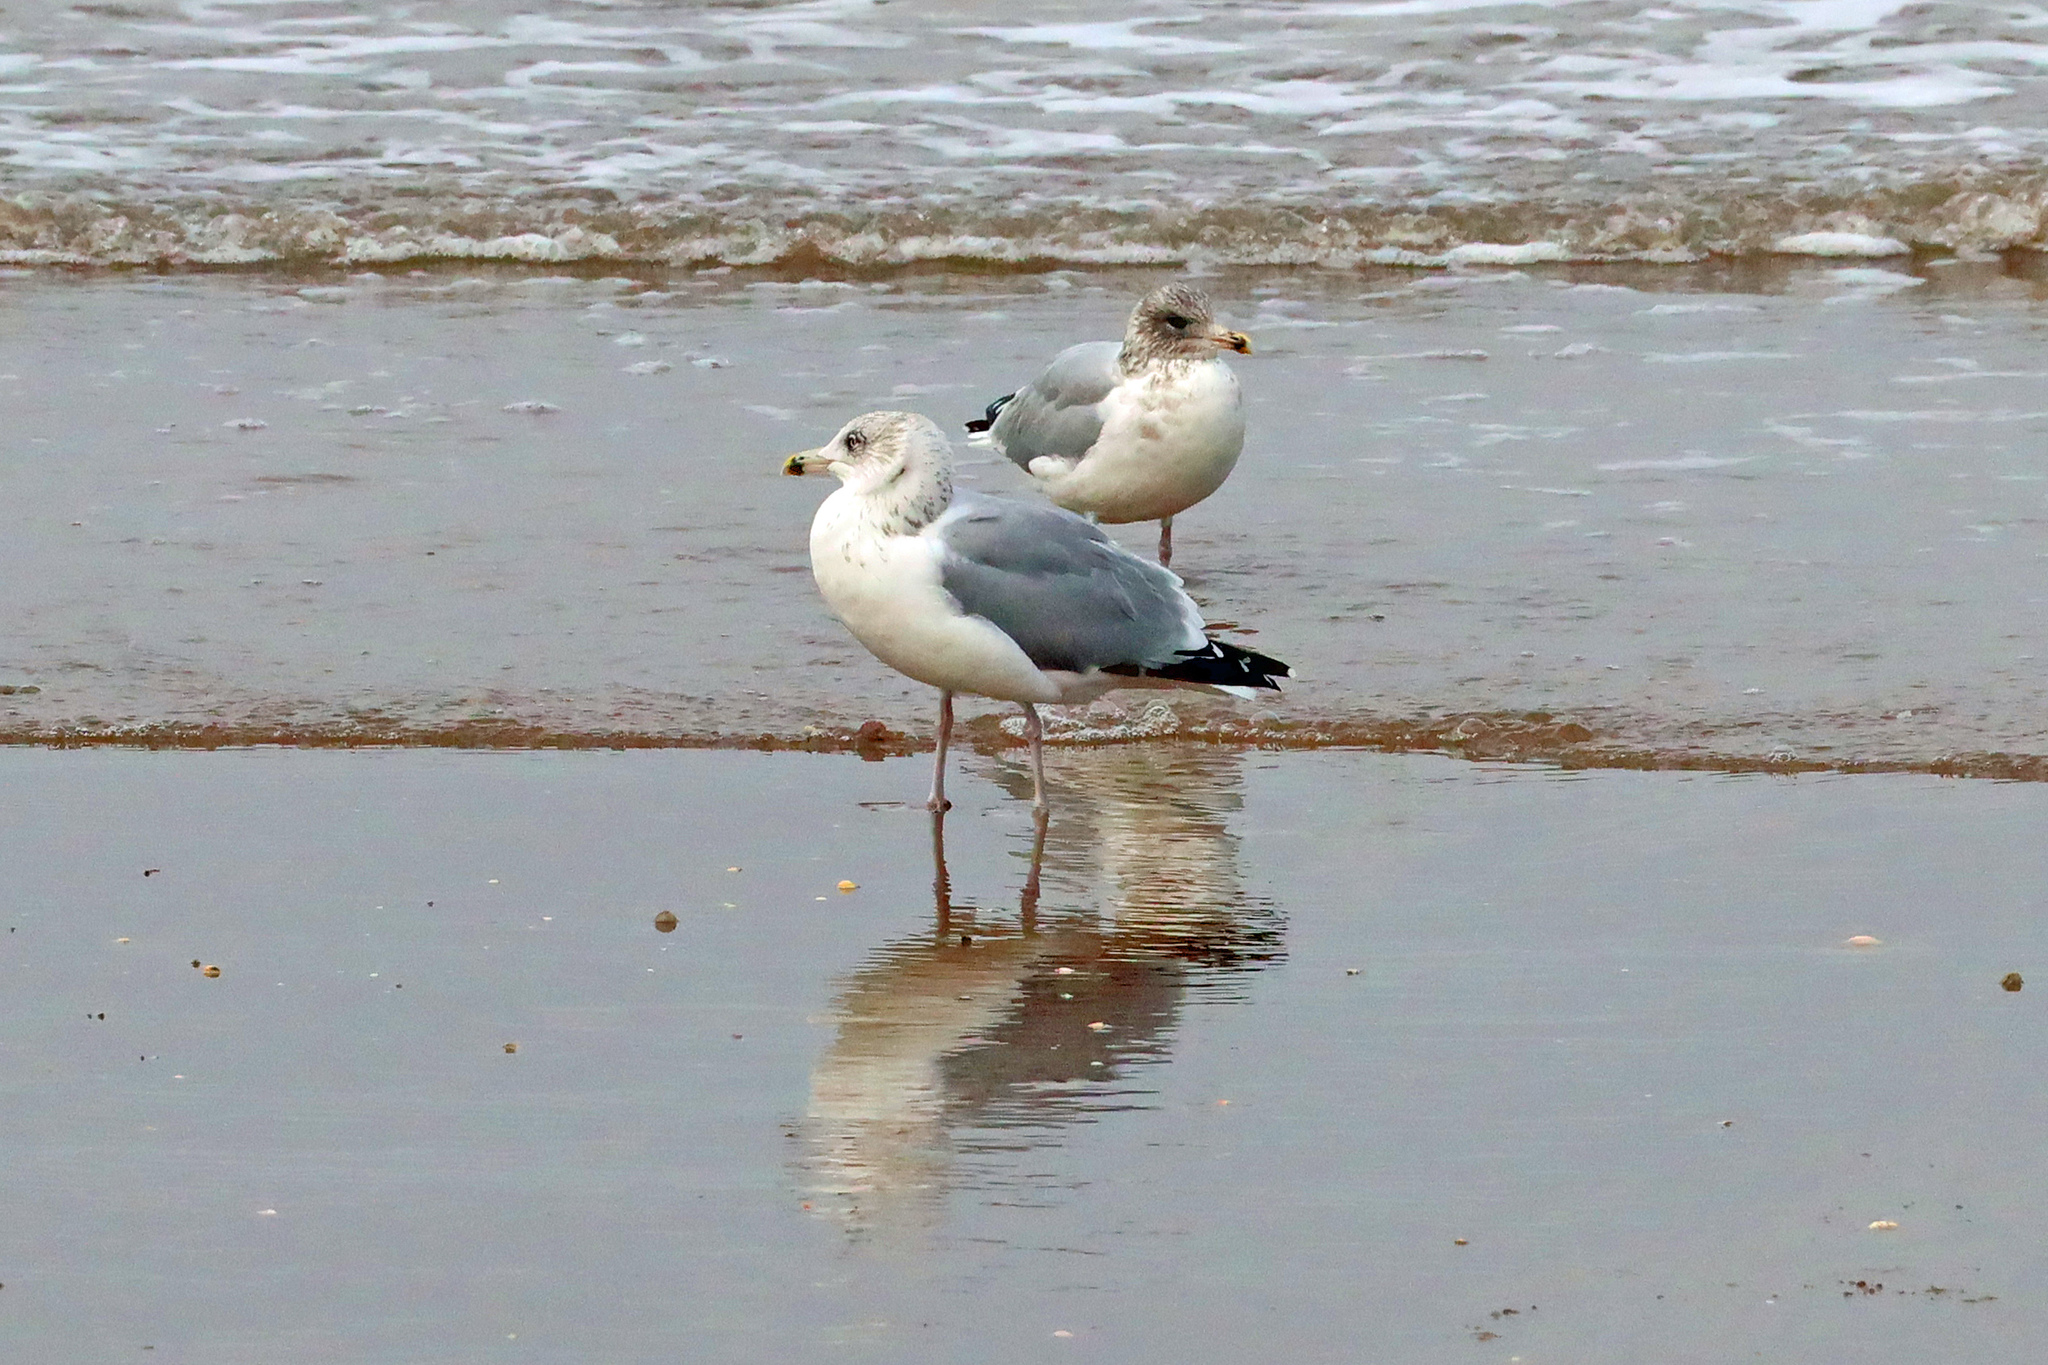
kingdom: Animalia
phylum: Chordata
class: Aves
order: Charadriiformes
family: Laridae
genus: Larus
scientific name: Larus argentatus
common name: Herring gull
